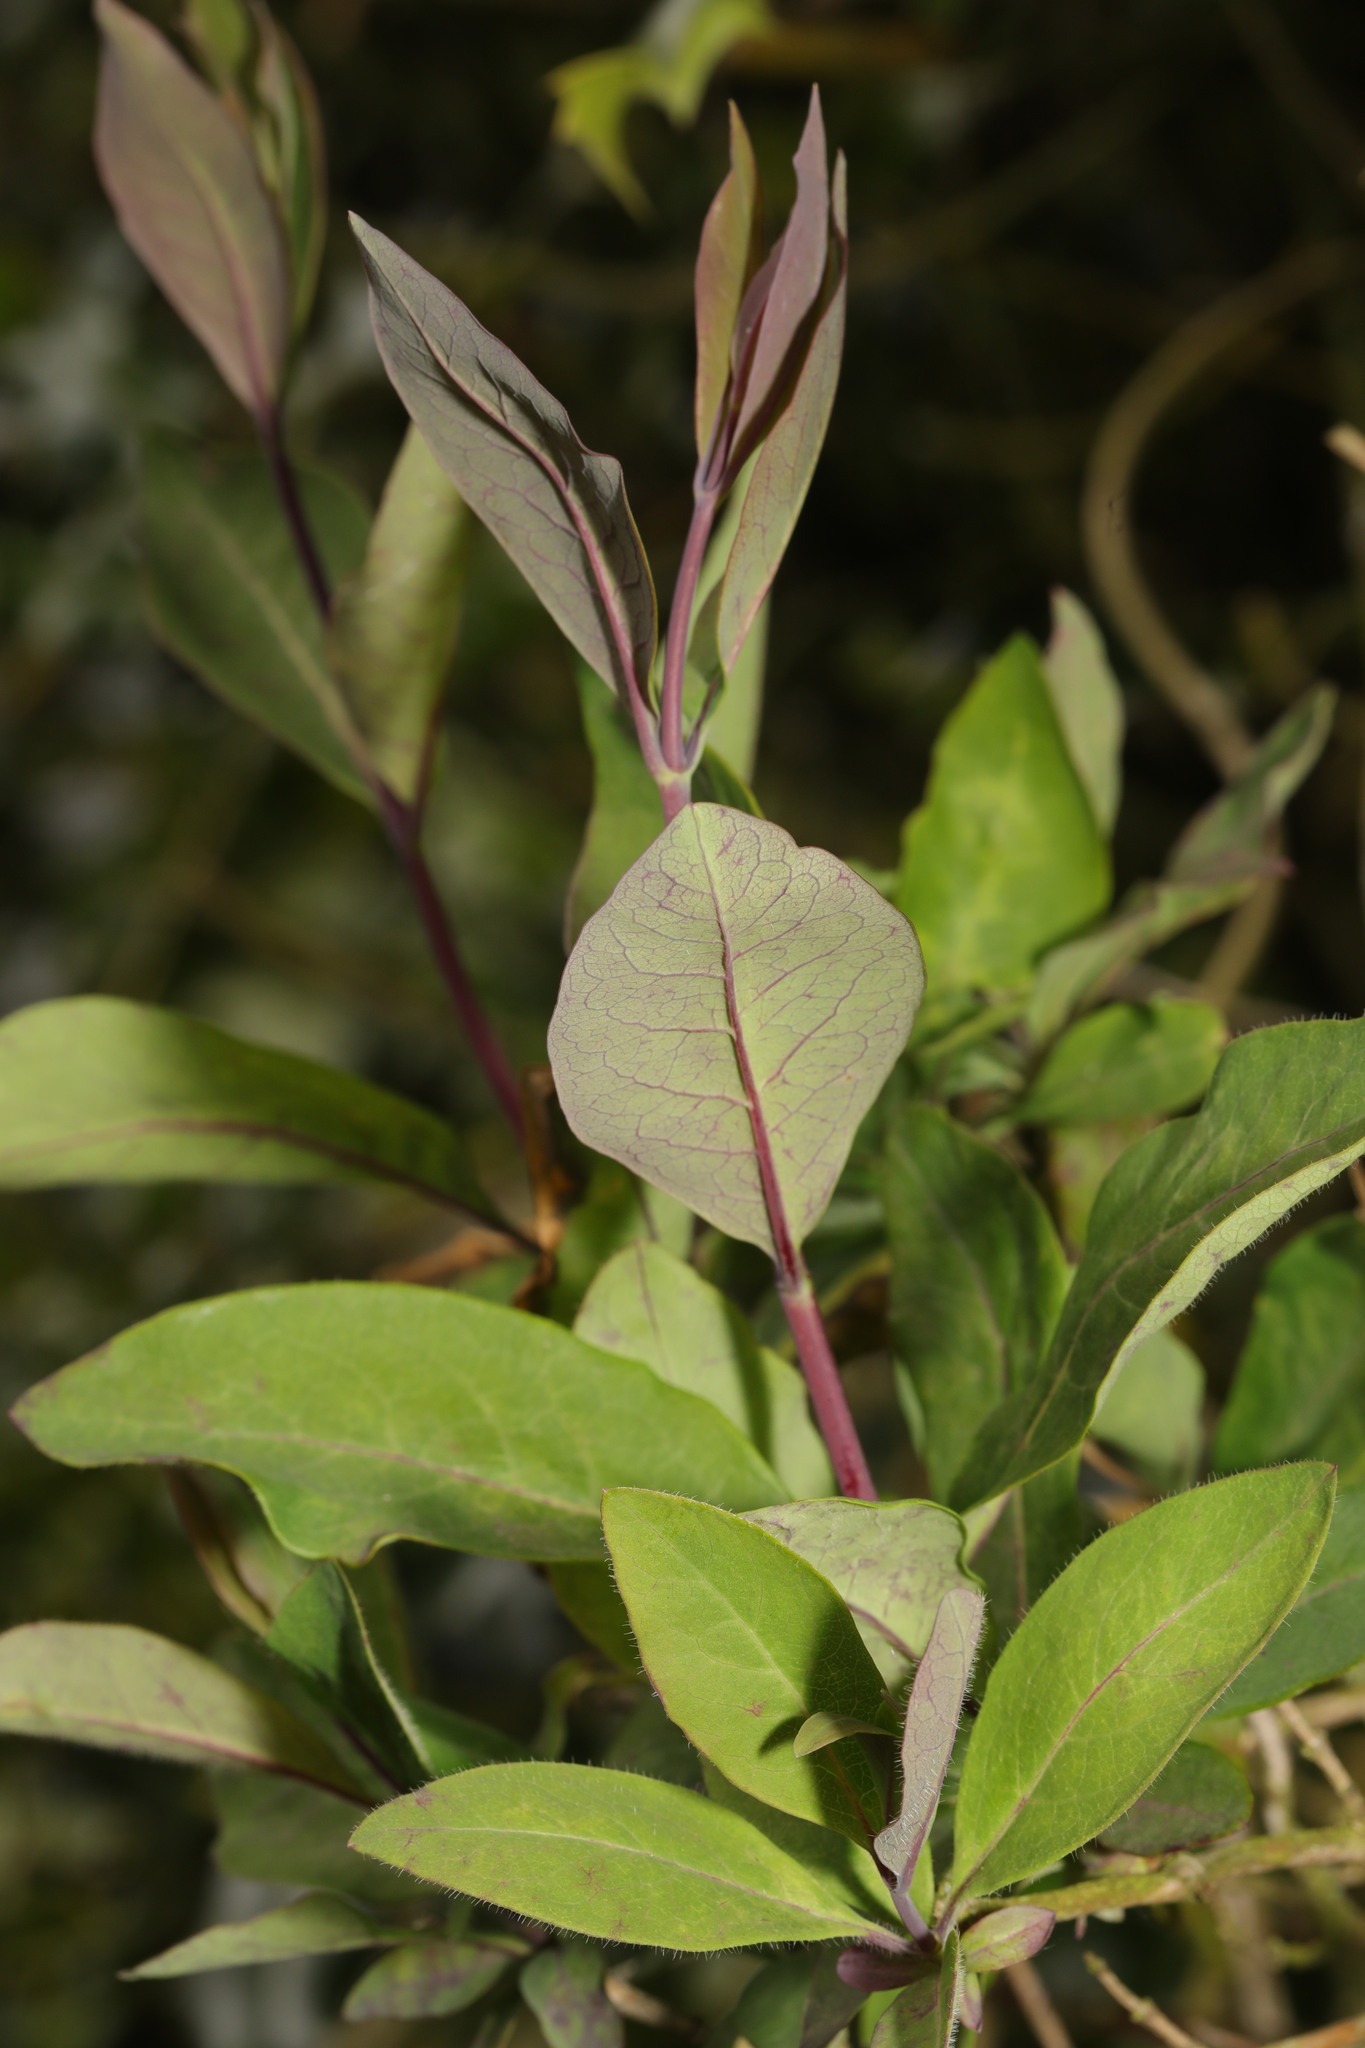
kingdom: Plantae
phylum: Tracheophyta
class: Magnoliopsida
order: Dipsacales
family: Caprifoliaceae
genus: Lonicera
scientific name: Lonicera periclymenum
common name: European honeysuckle
